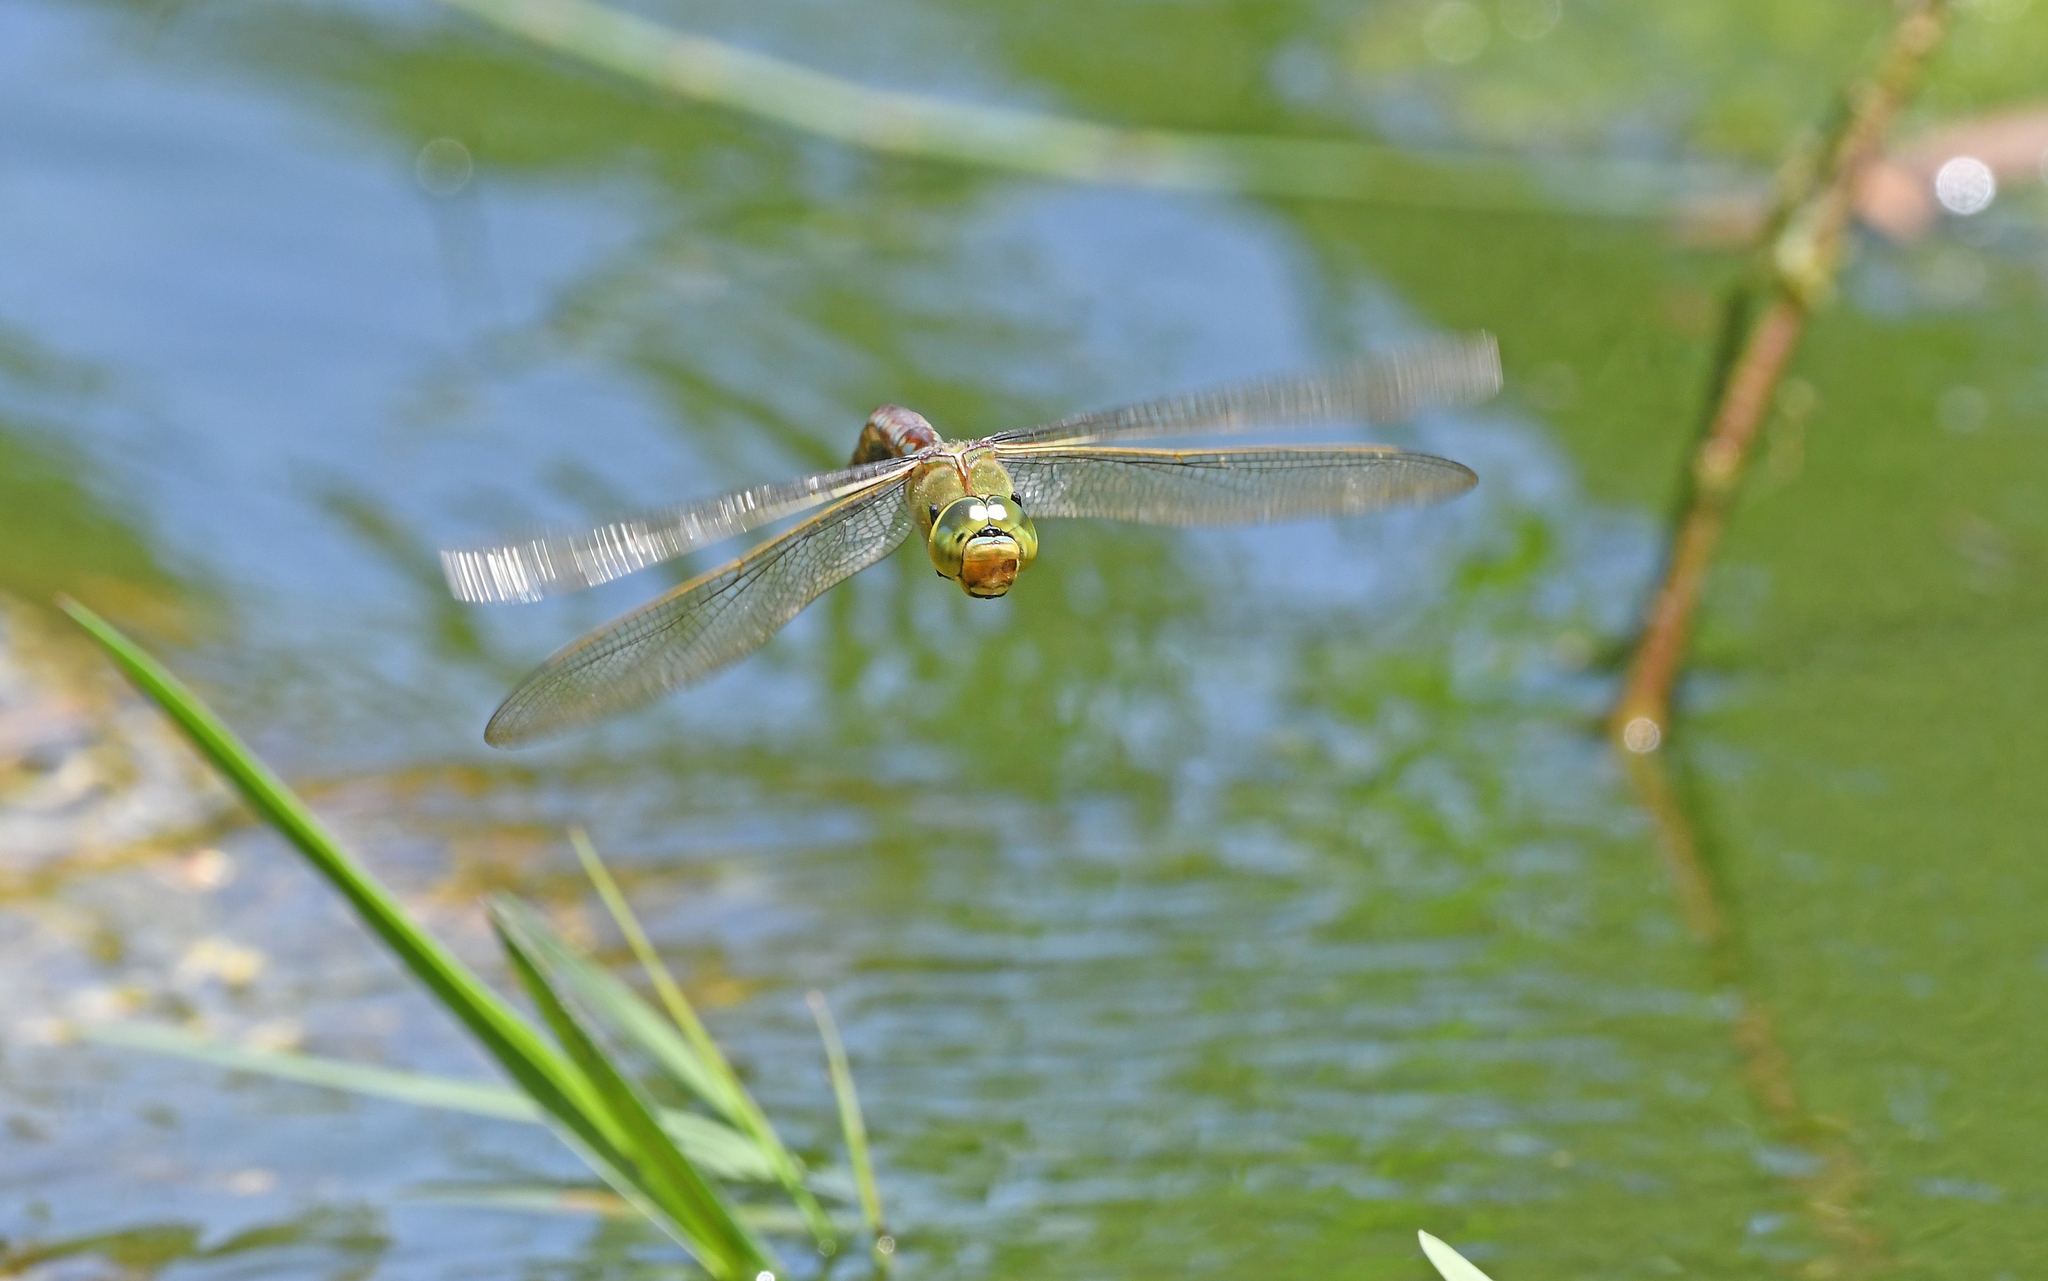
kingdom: Animalia
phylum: Arthropoda
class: Insecta
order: Odonata
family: Aeshnidae
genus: Anax
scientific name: Anax imperator
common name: Emperor dragonfly
